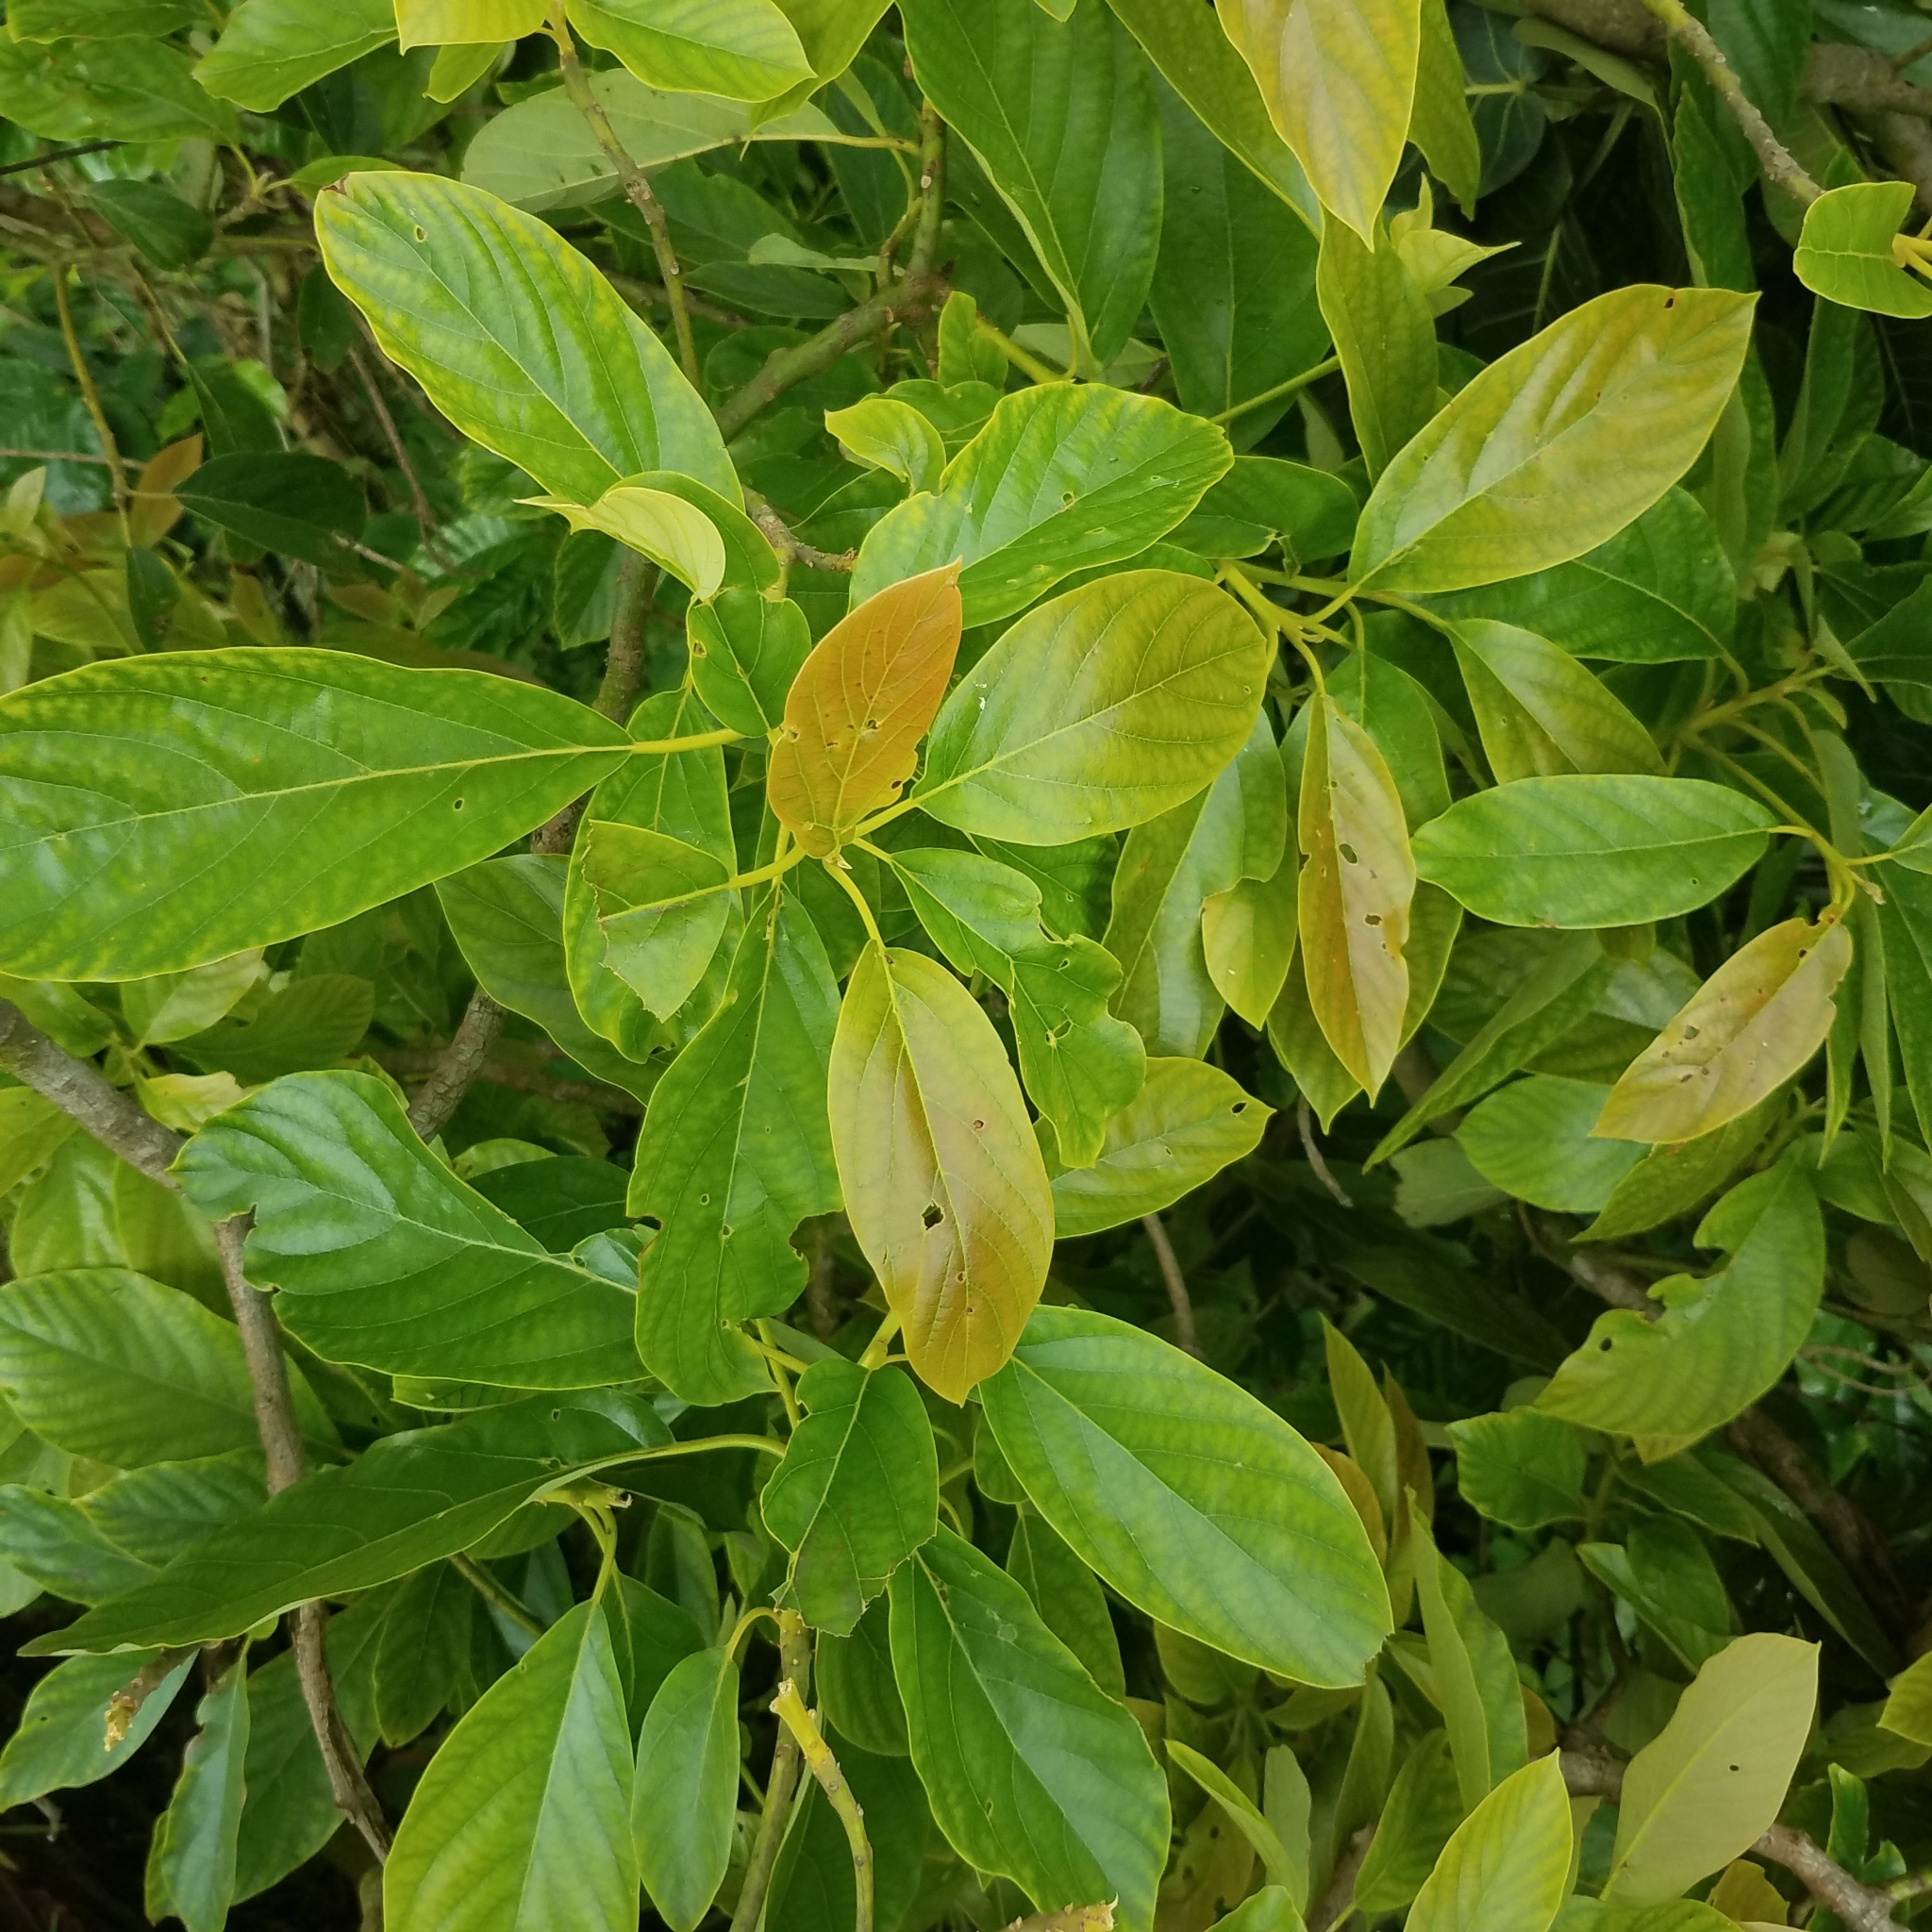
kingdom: Plantae
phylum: Tracheophyta
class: Magnoliopsida
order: Laurales
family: Lauraceae
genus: Persea
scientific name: Persea americana
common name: Avocado
